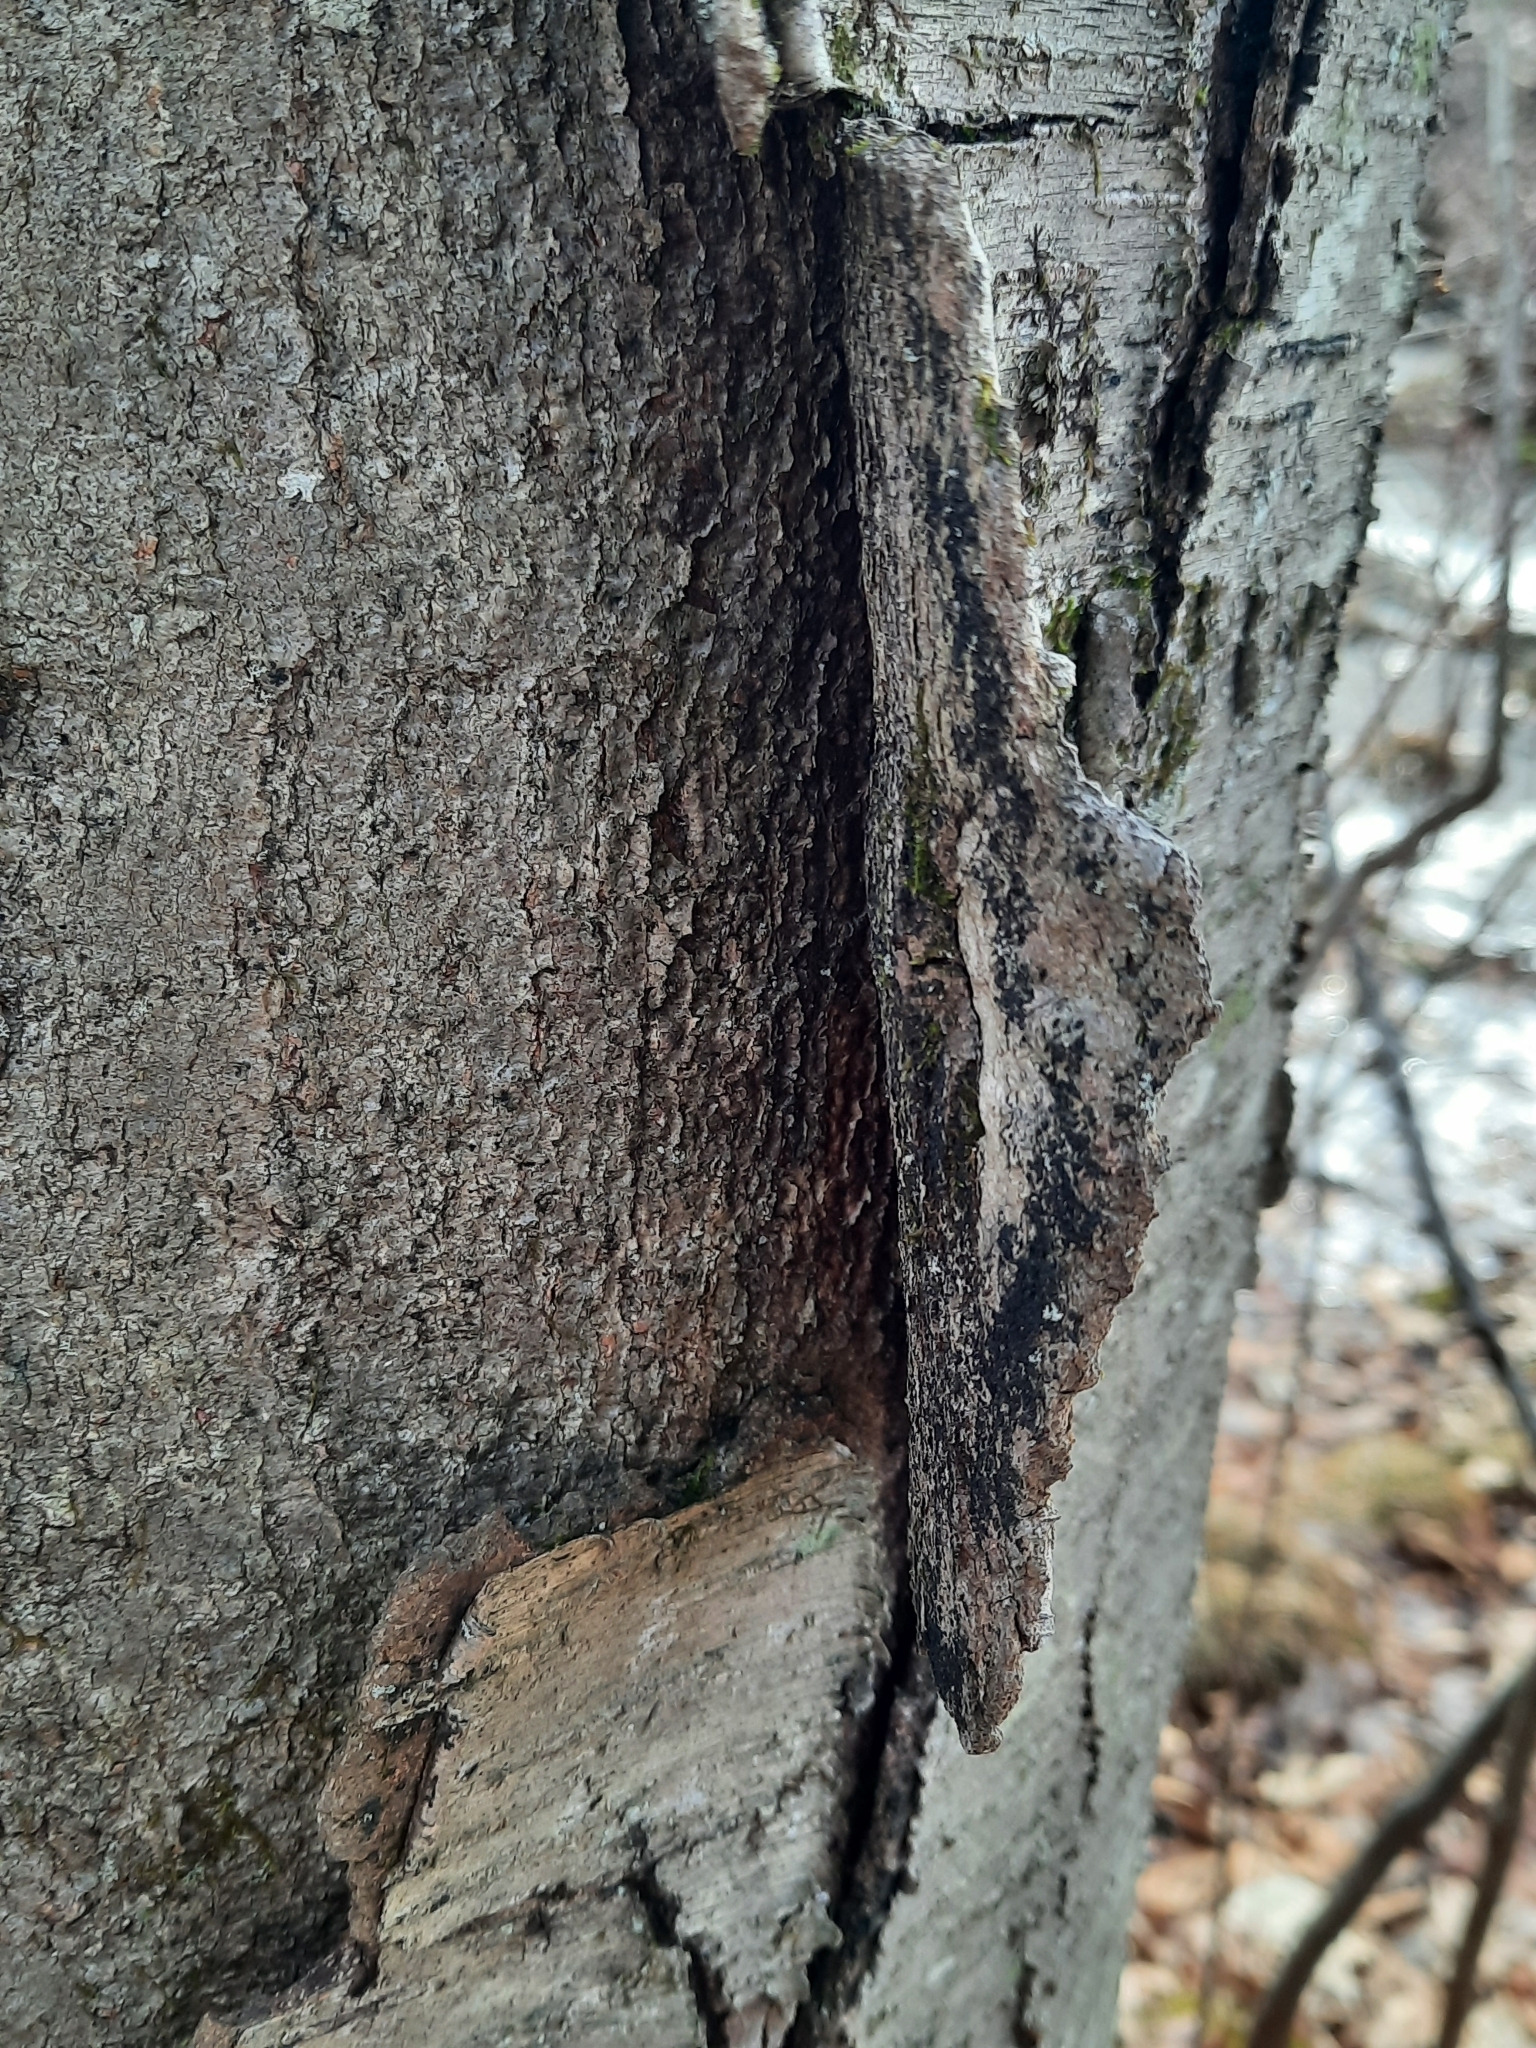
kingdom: Plantae
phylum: Tracheophyta
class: Magnoliopsida
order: Fagales
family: Betulaceae
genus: Betula
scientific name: Betula lenta
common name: Black birch
